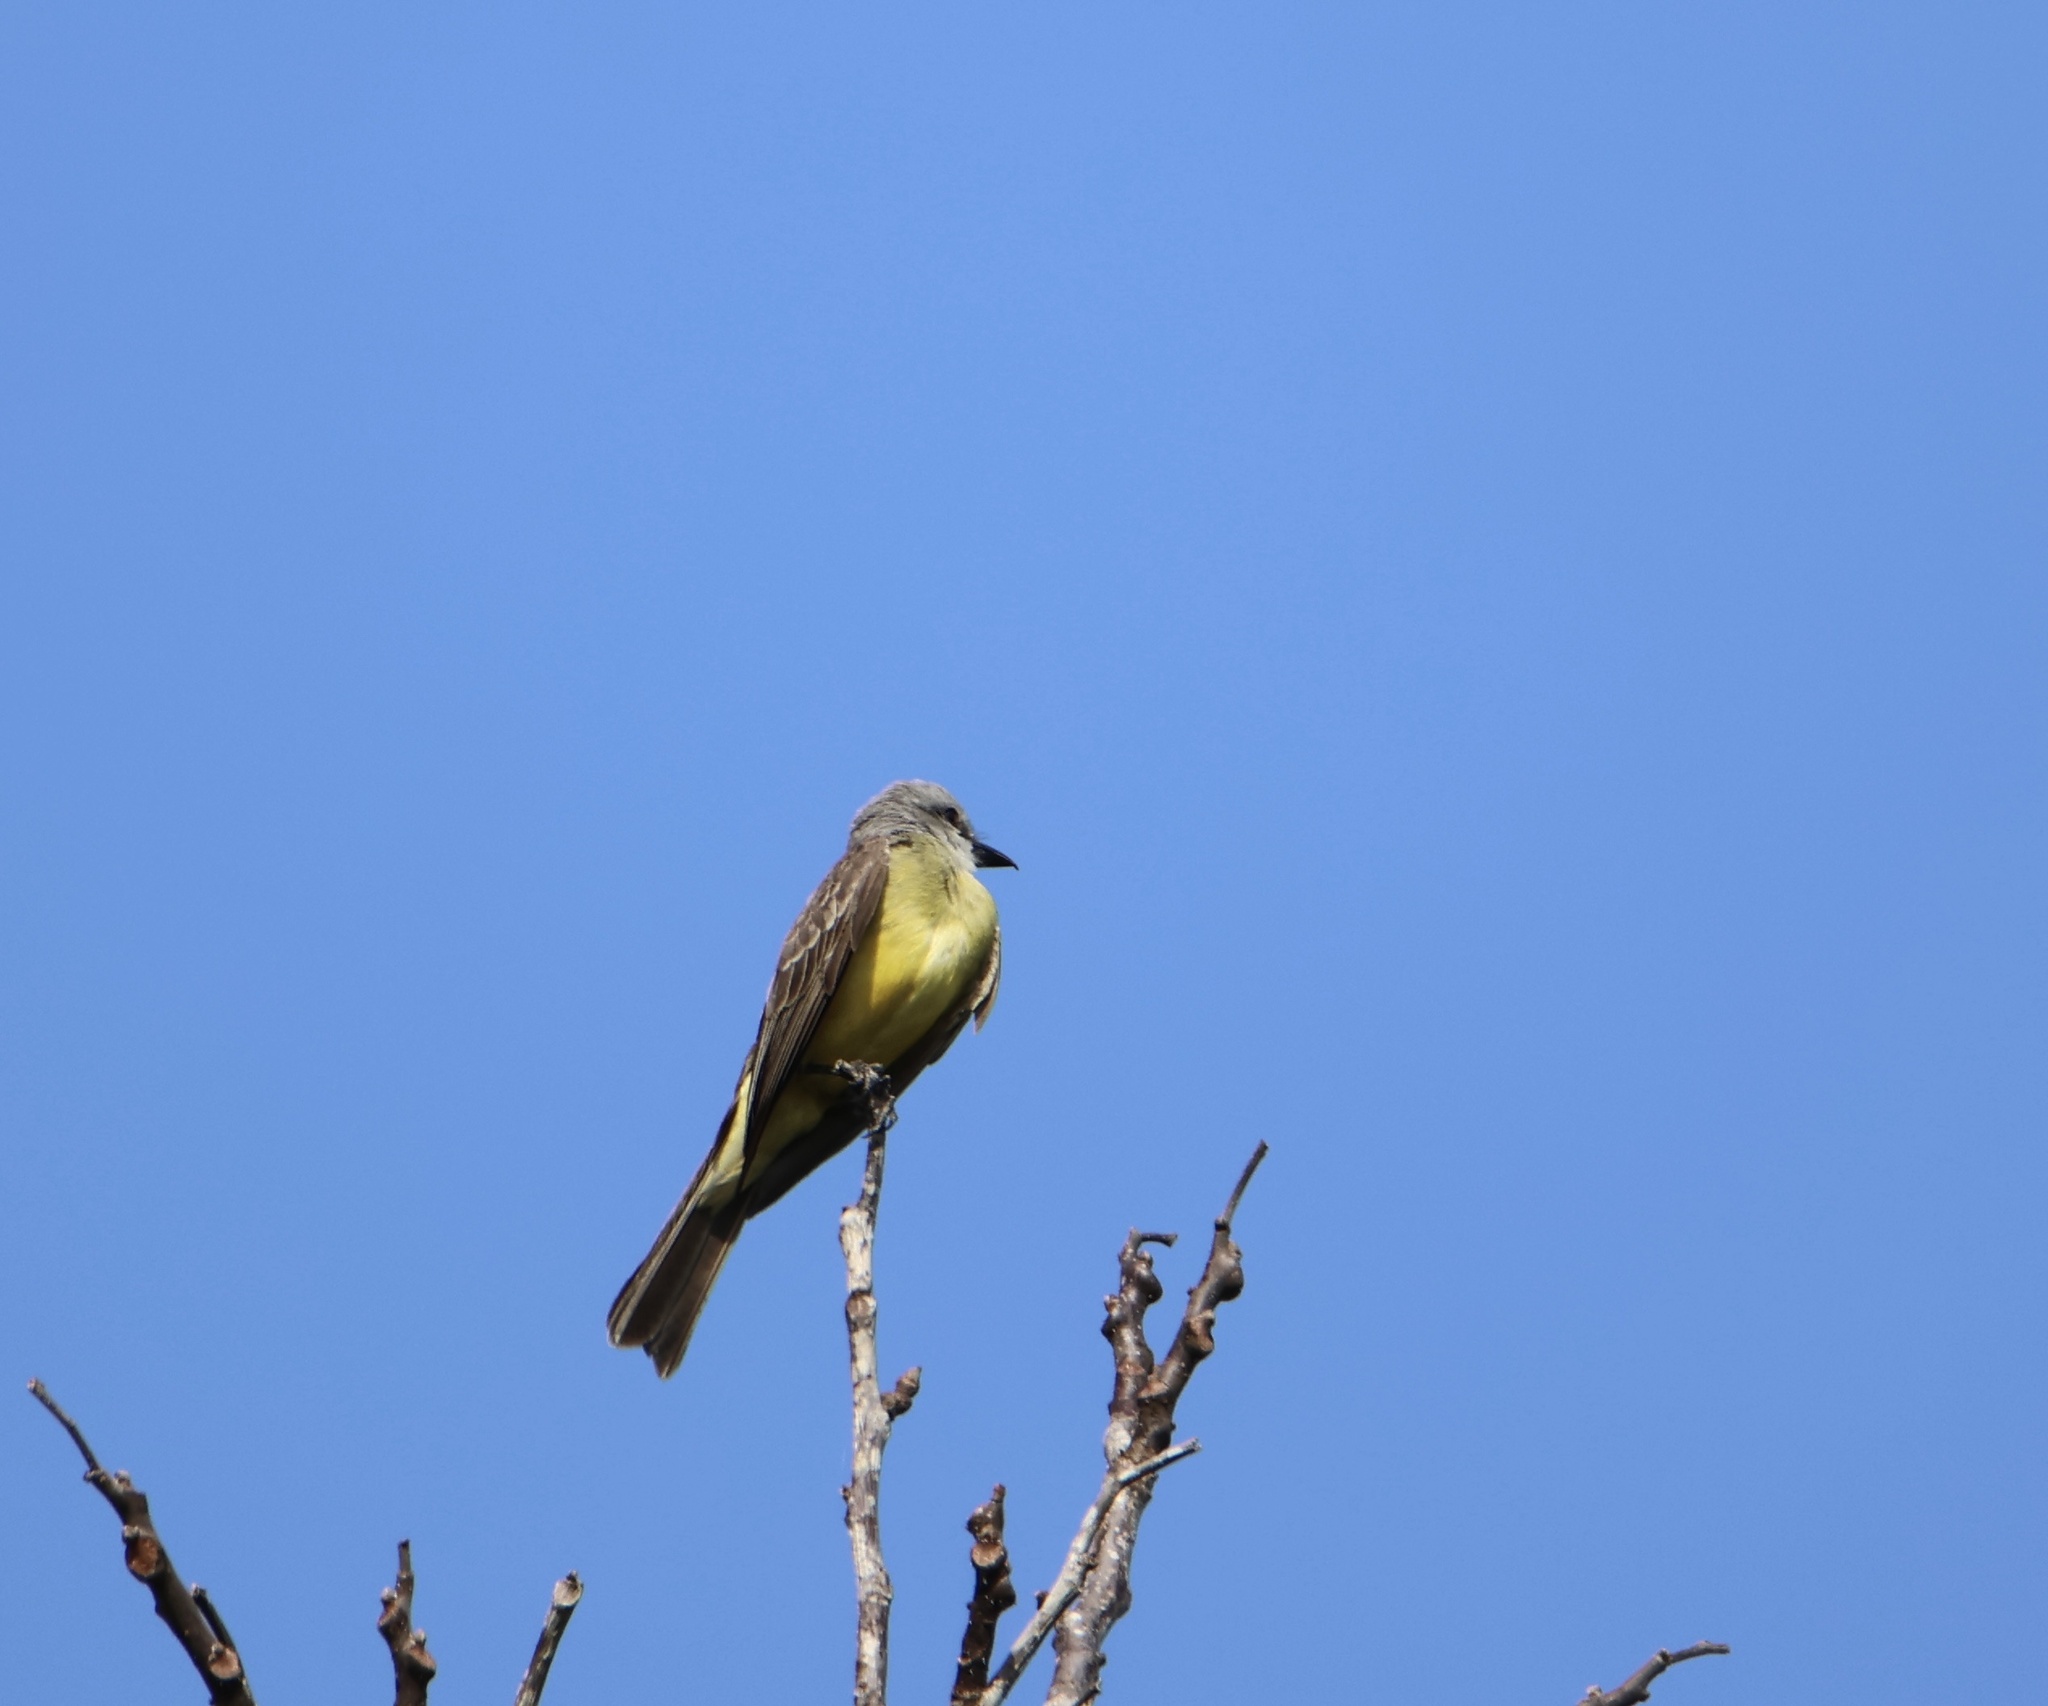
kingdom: Animalia
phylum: Chordata
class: Aves
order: Passeriformes
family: Tyrannidae
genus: Tyrannus
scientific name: Tyrannus melancholicus
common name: Tropical kingbird
